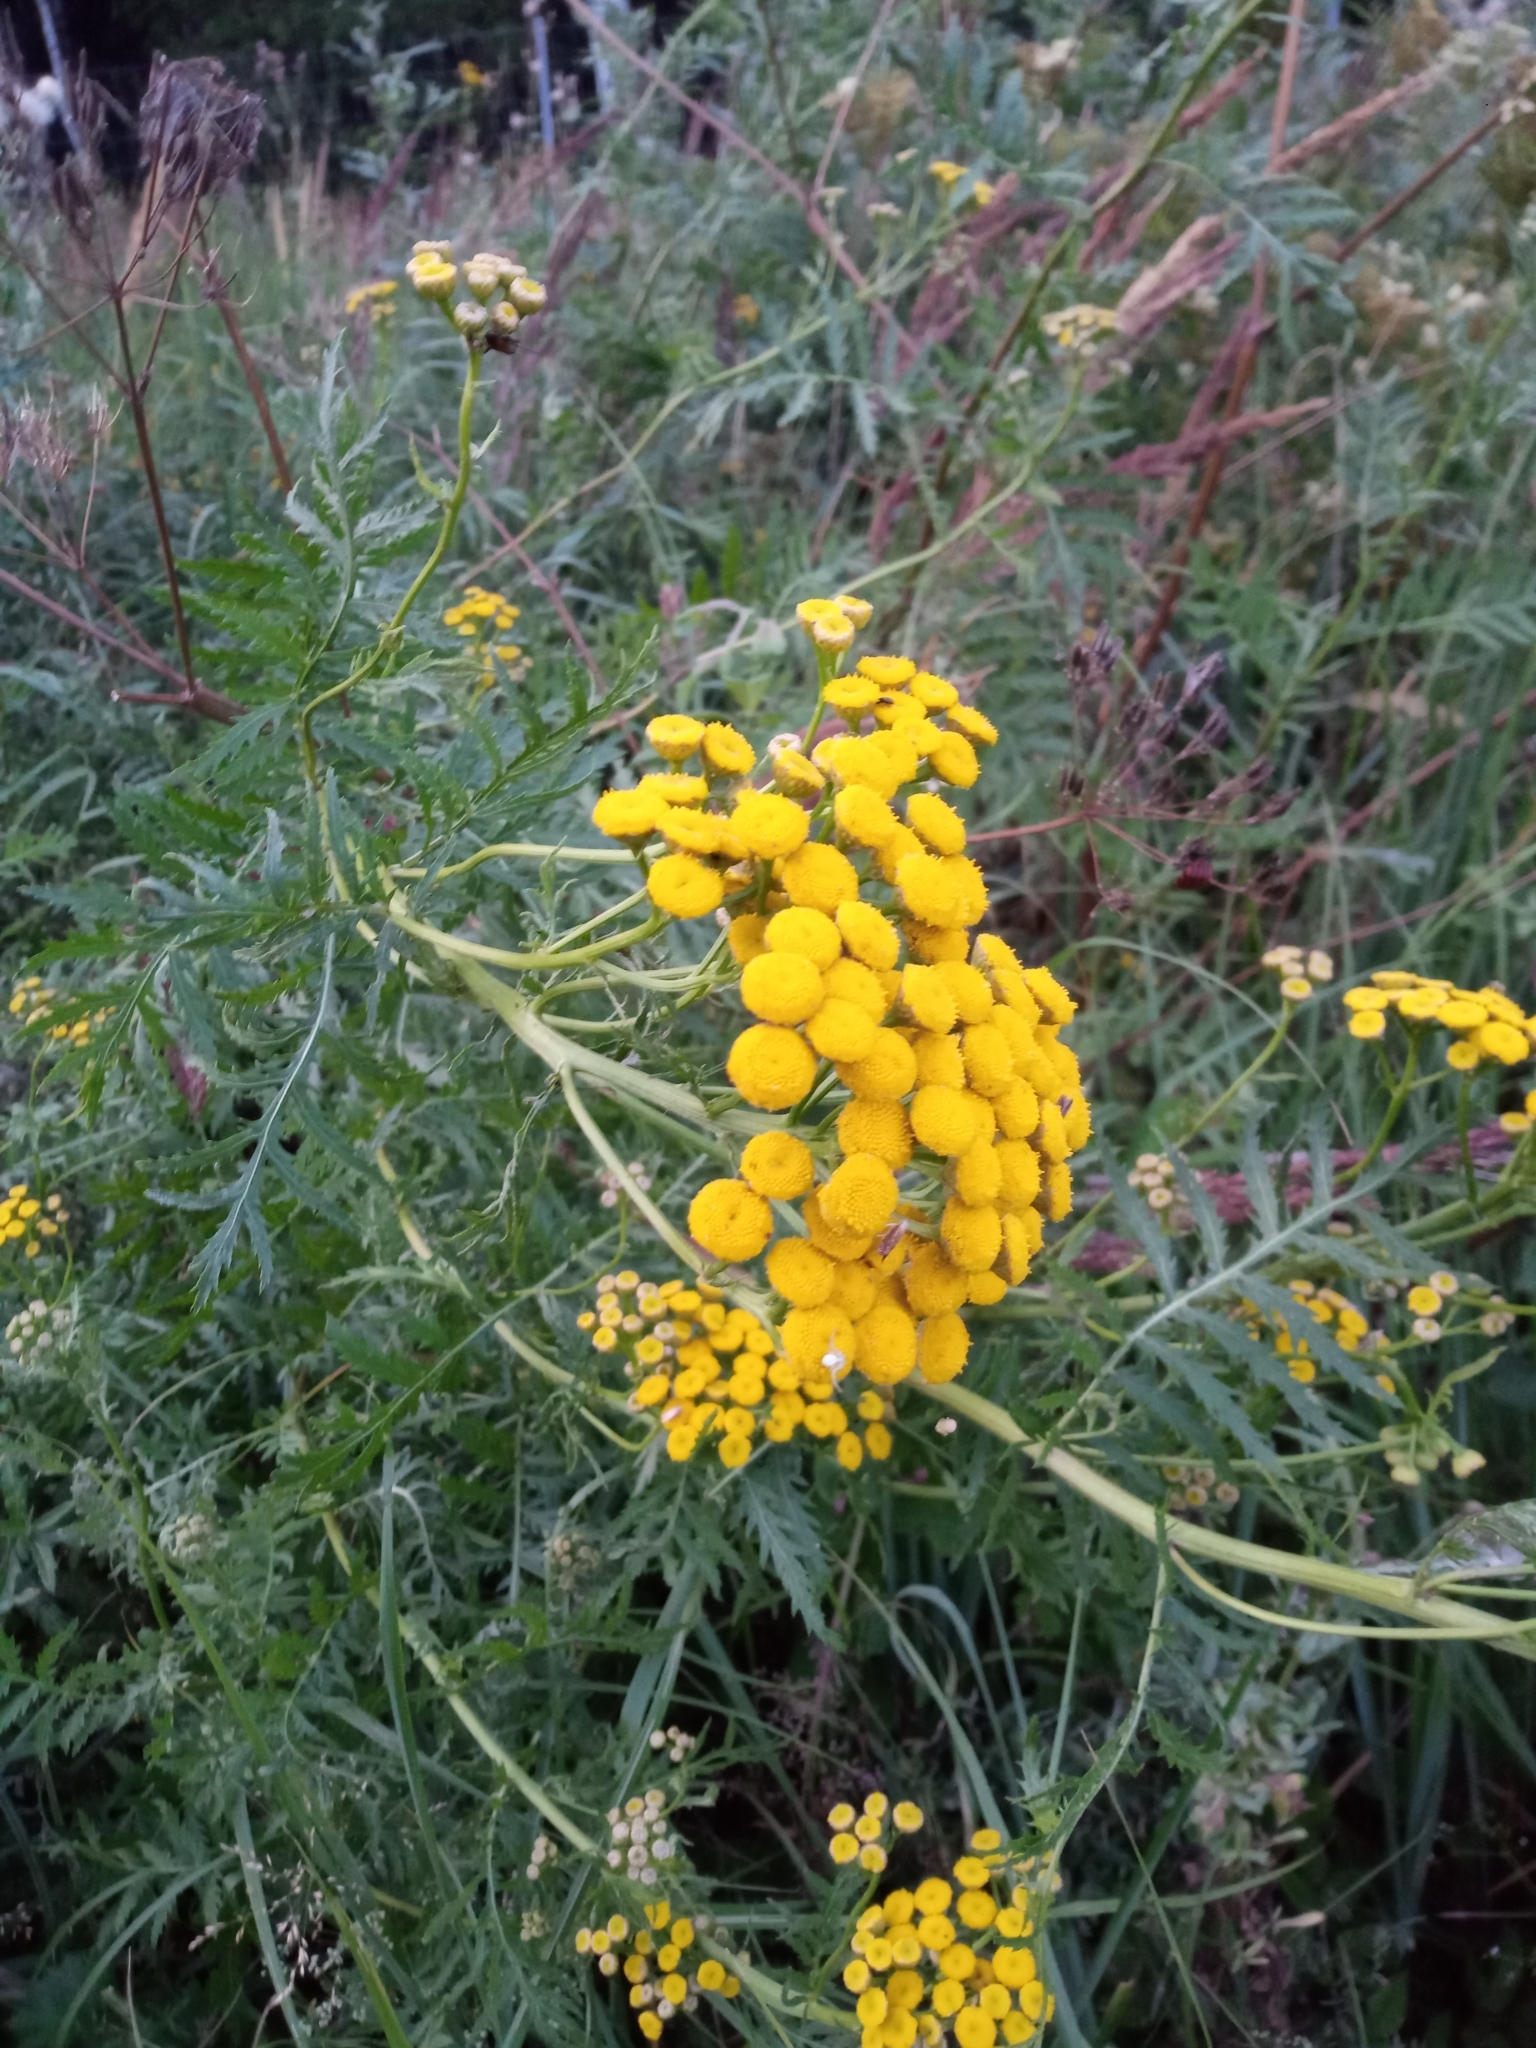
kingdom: Plantae
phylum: Tracheophyta
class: Magnoliopsida
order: Asterales
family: Asteraceae
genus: Tanacetum
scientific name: Tanacetum vulgare
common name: Common tansy
